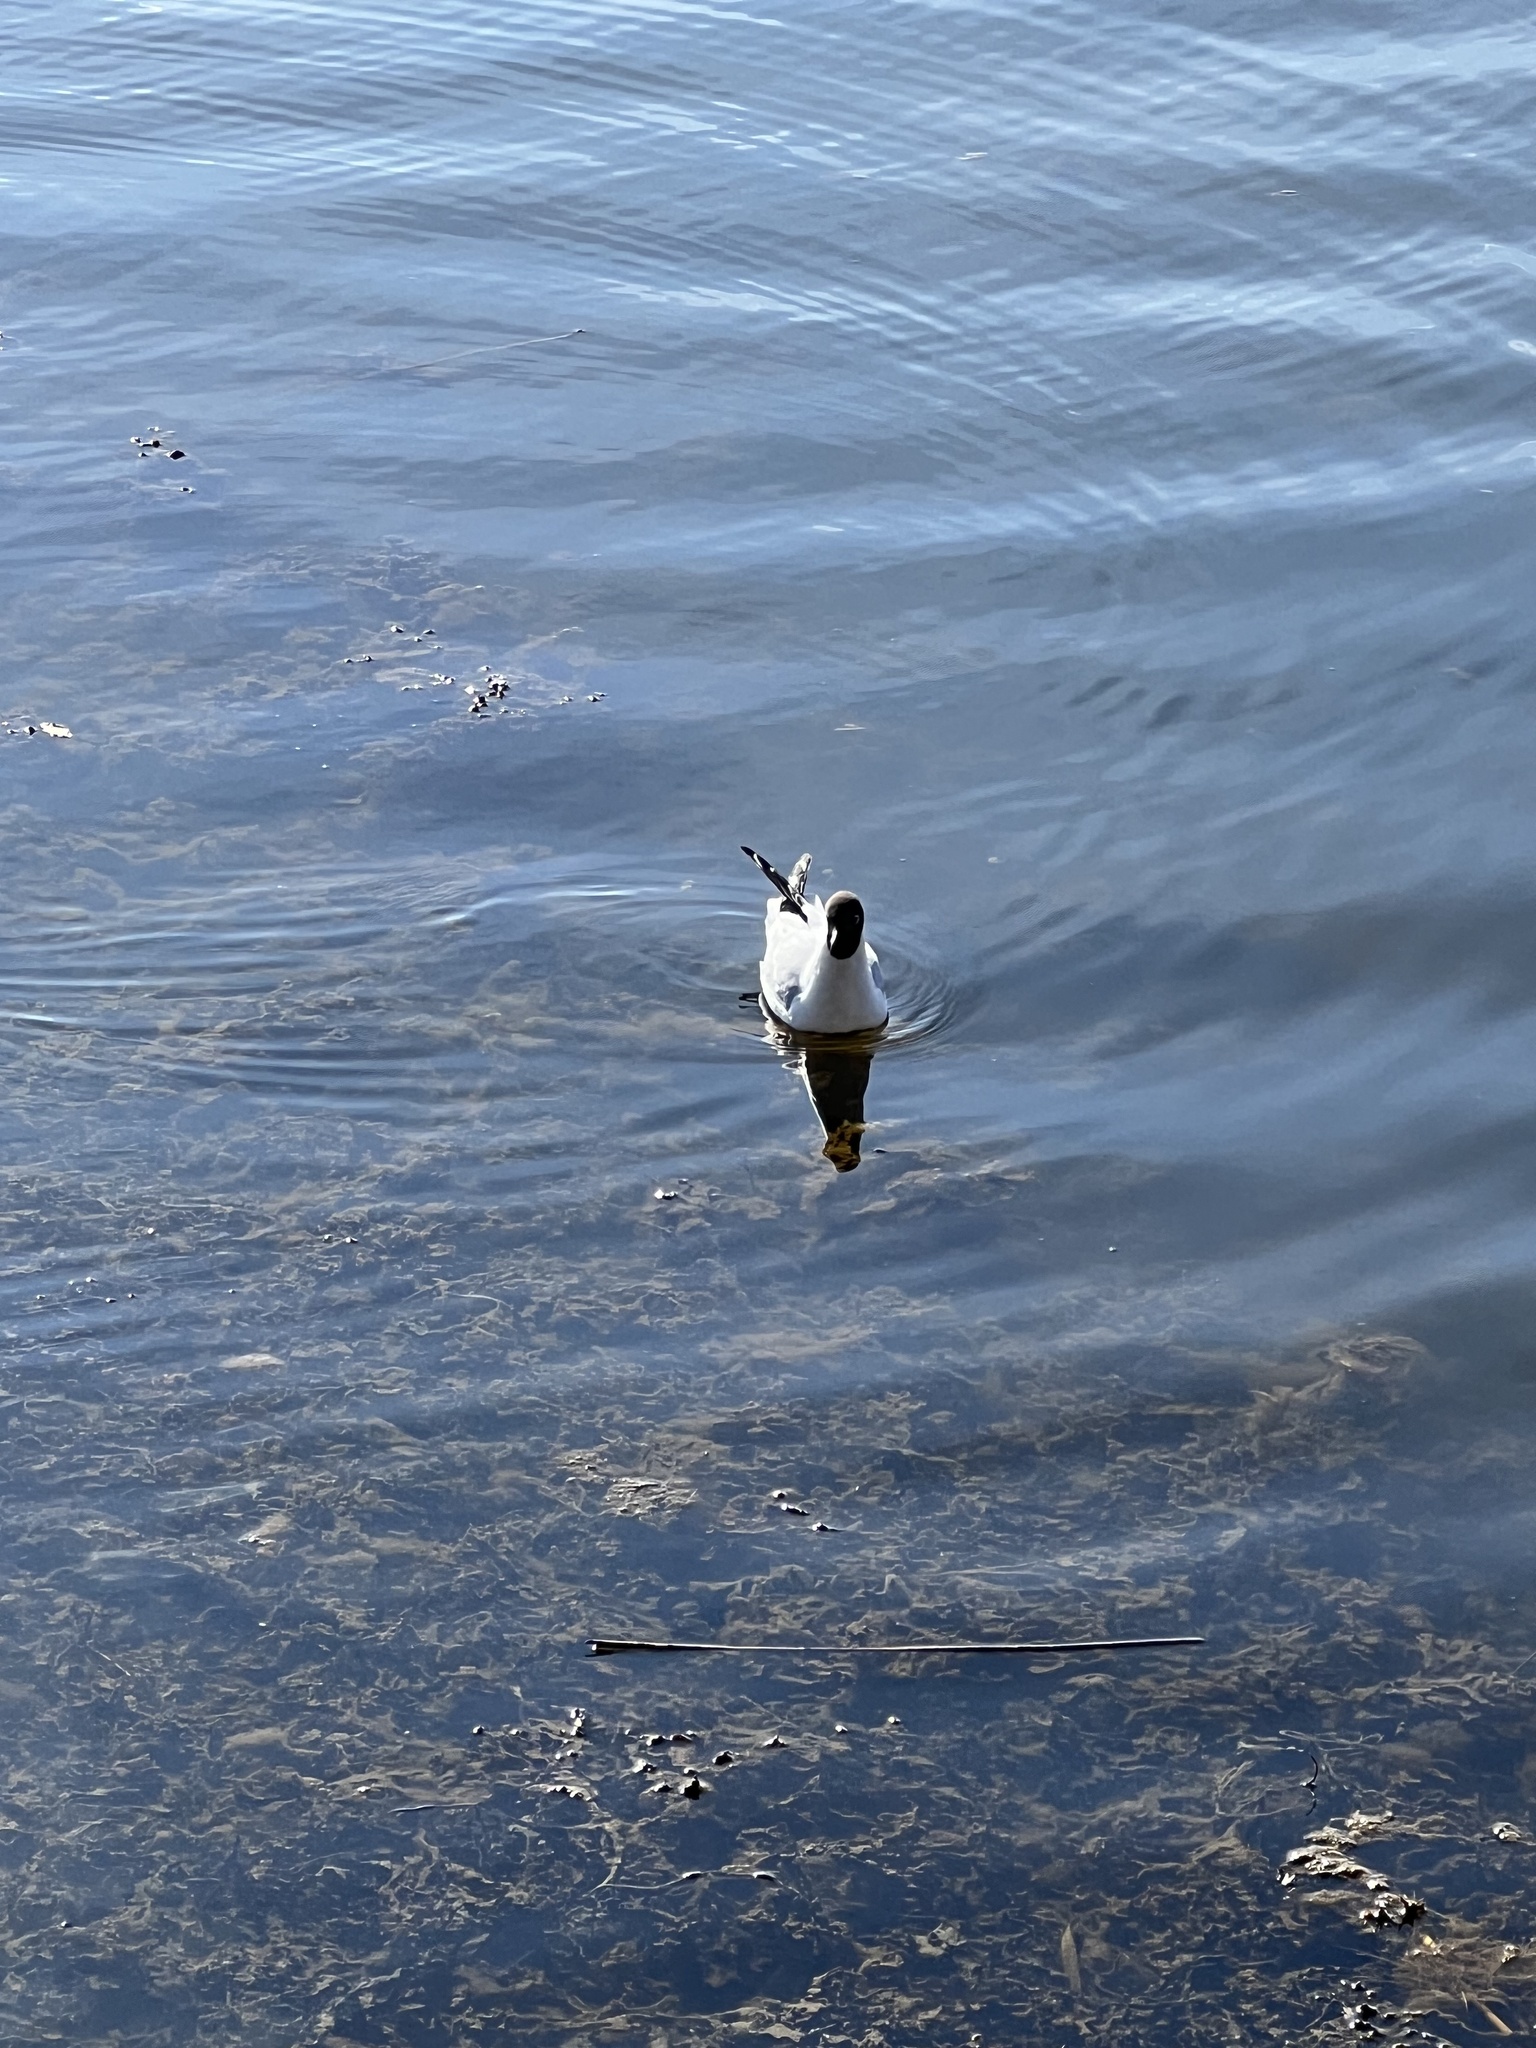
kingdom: Animalia
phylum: Chordata
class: Aves
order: Charadriiformes
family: Laridae
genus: Chroicocephalus
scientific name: Chroicocephalus ridibundus
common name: Black-headed gull
